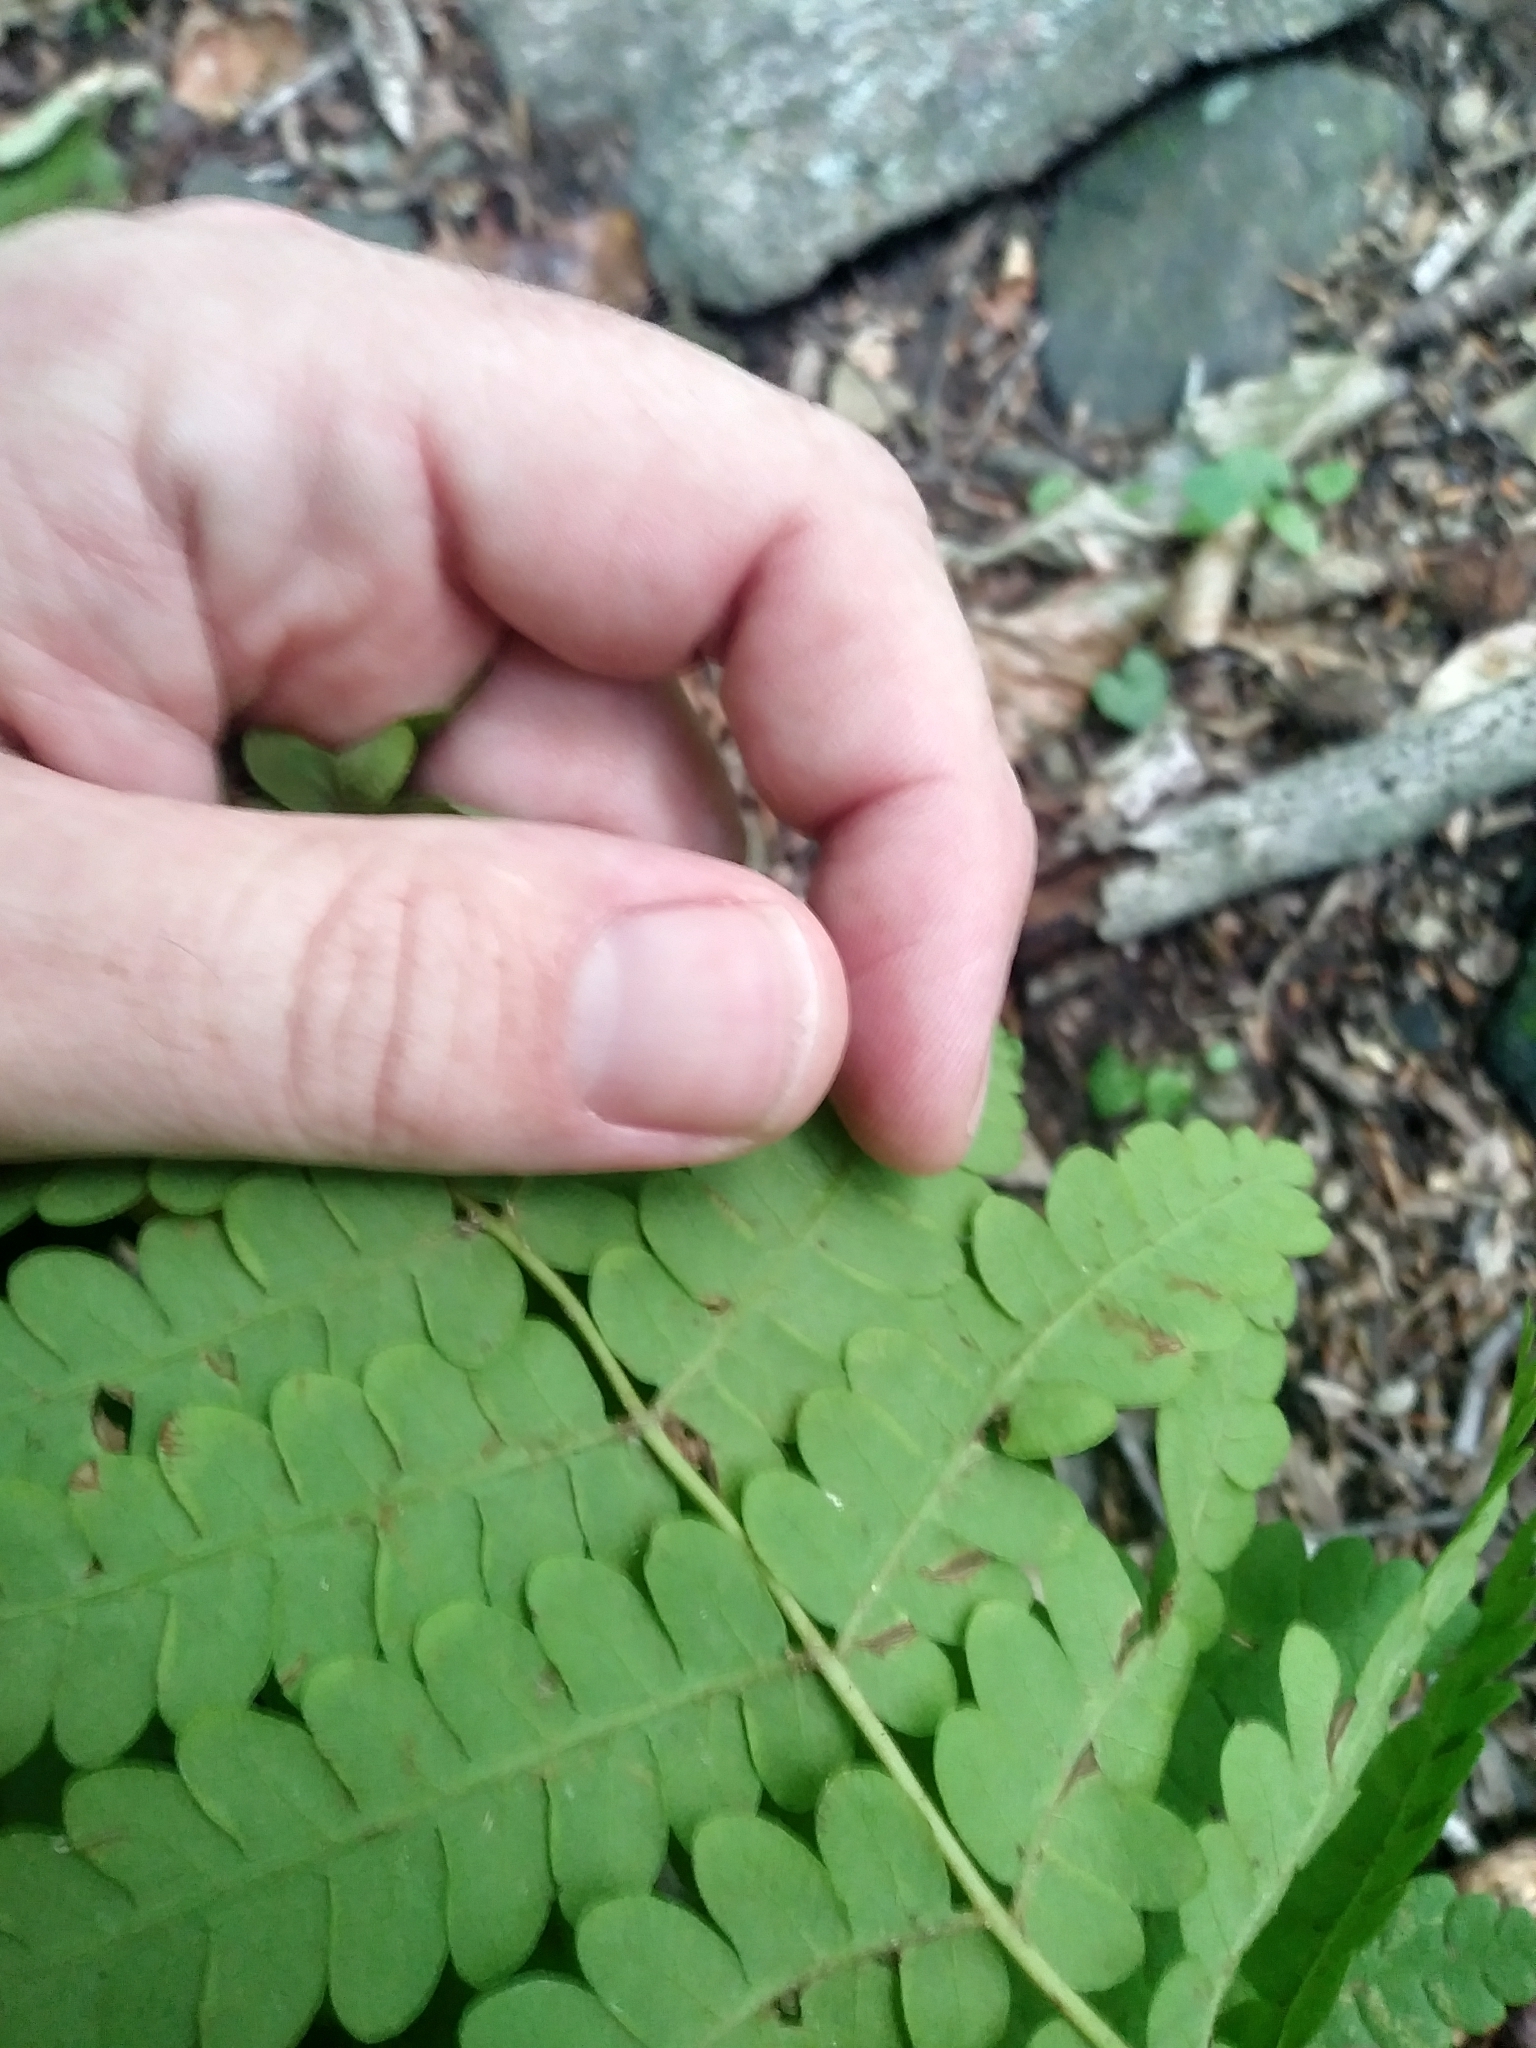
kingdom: Plantae
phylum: Tracheophyta
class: Polypodiopsida
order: Osmundales
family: Osmundaceae
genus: Claytosmunda
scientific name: Claytosmunda claytoniana
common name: Clayton's fern
